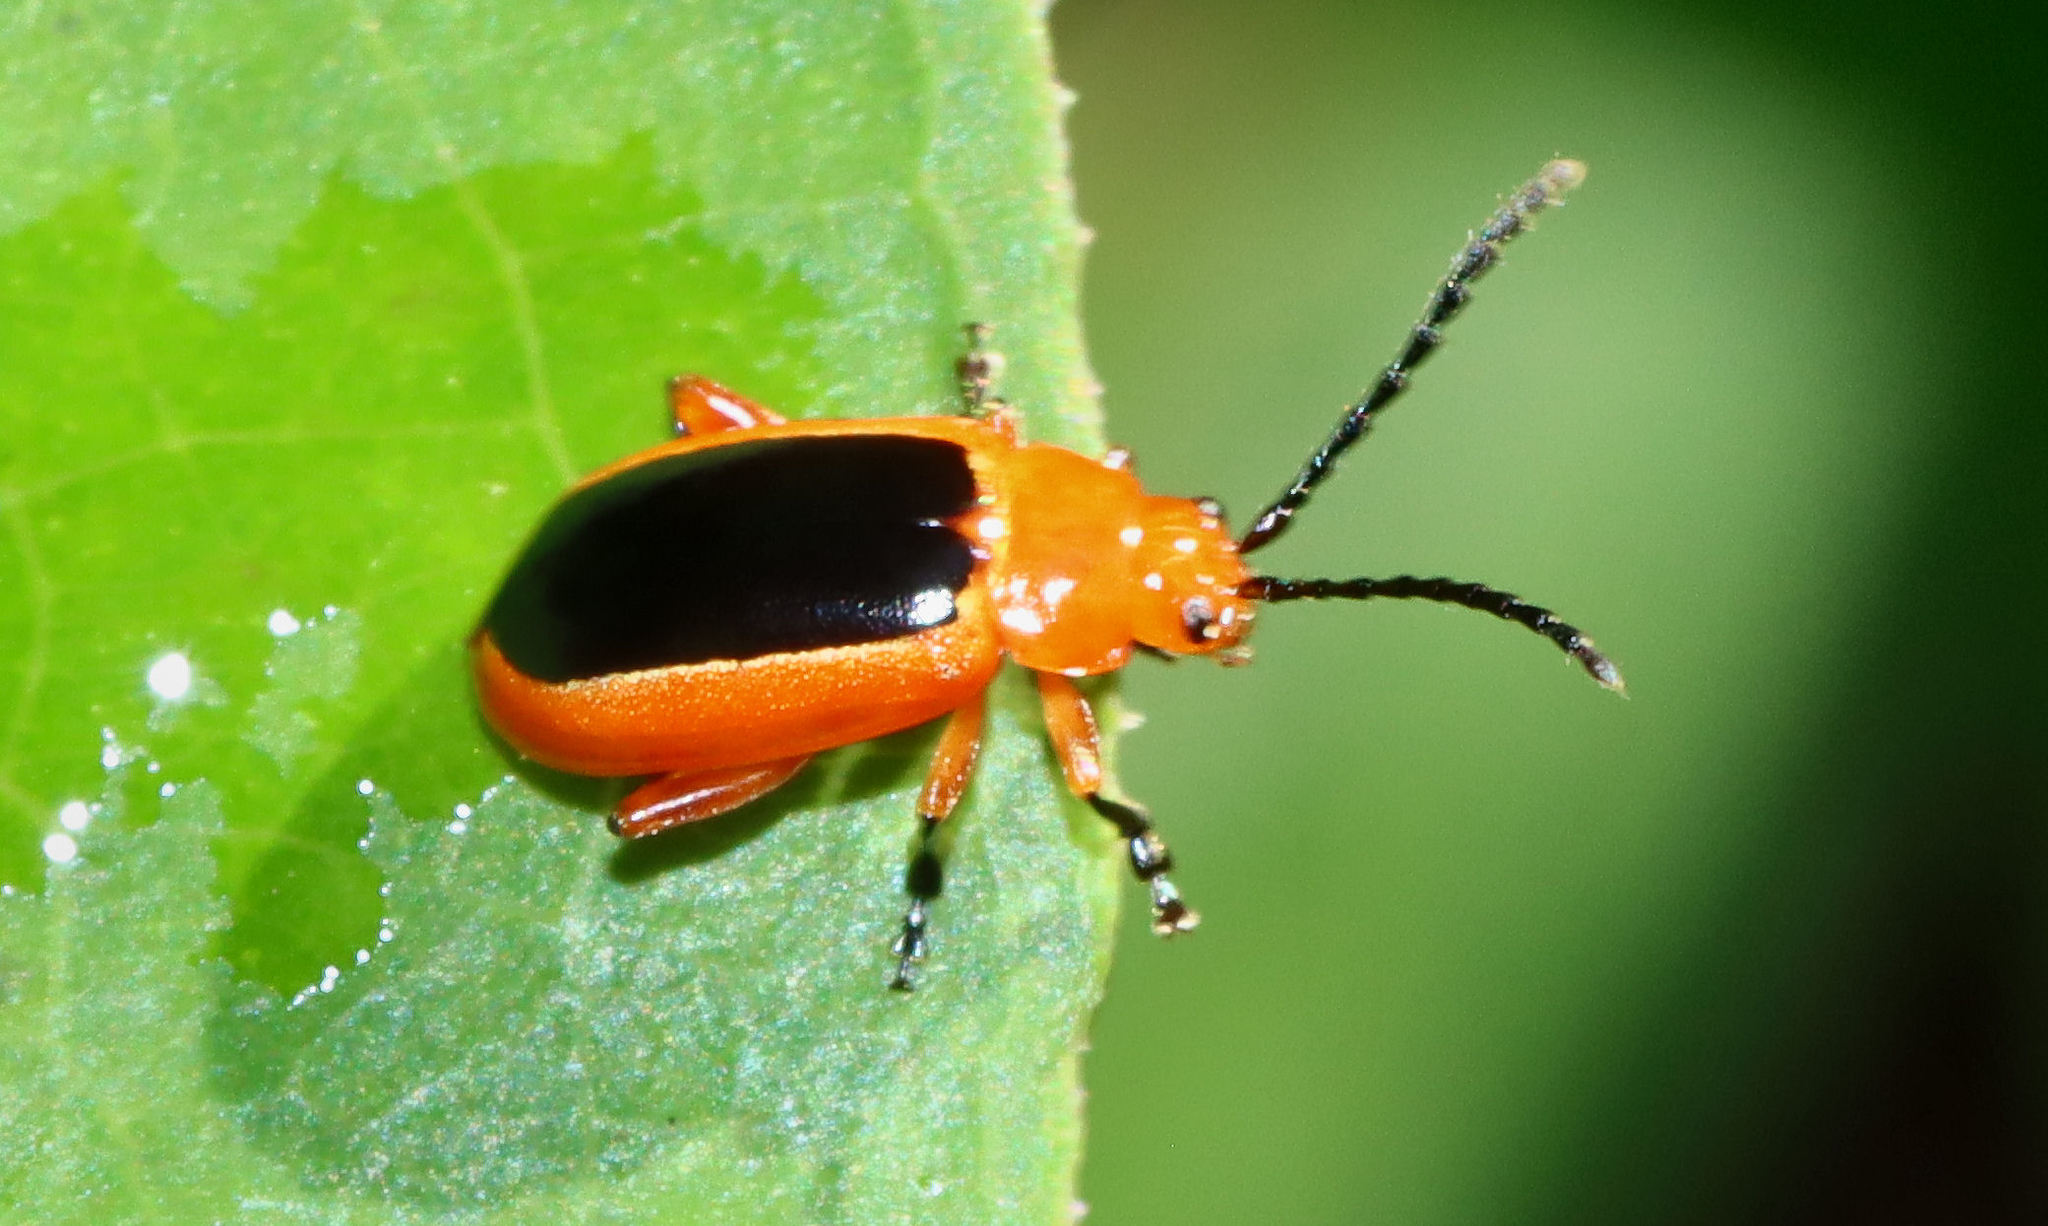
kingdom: Animalia
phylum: Arthropoda
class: Insecta
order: Coleoptera
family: Chrysomelidae
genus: Disonycha
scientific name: Disonycha discoidea
